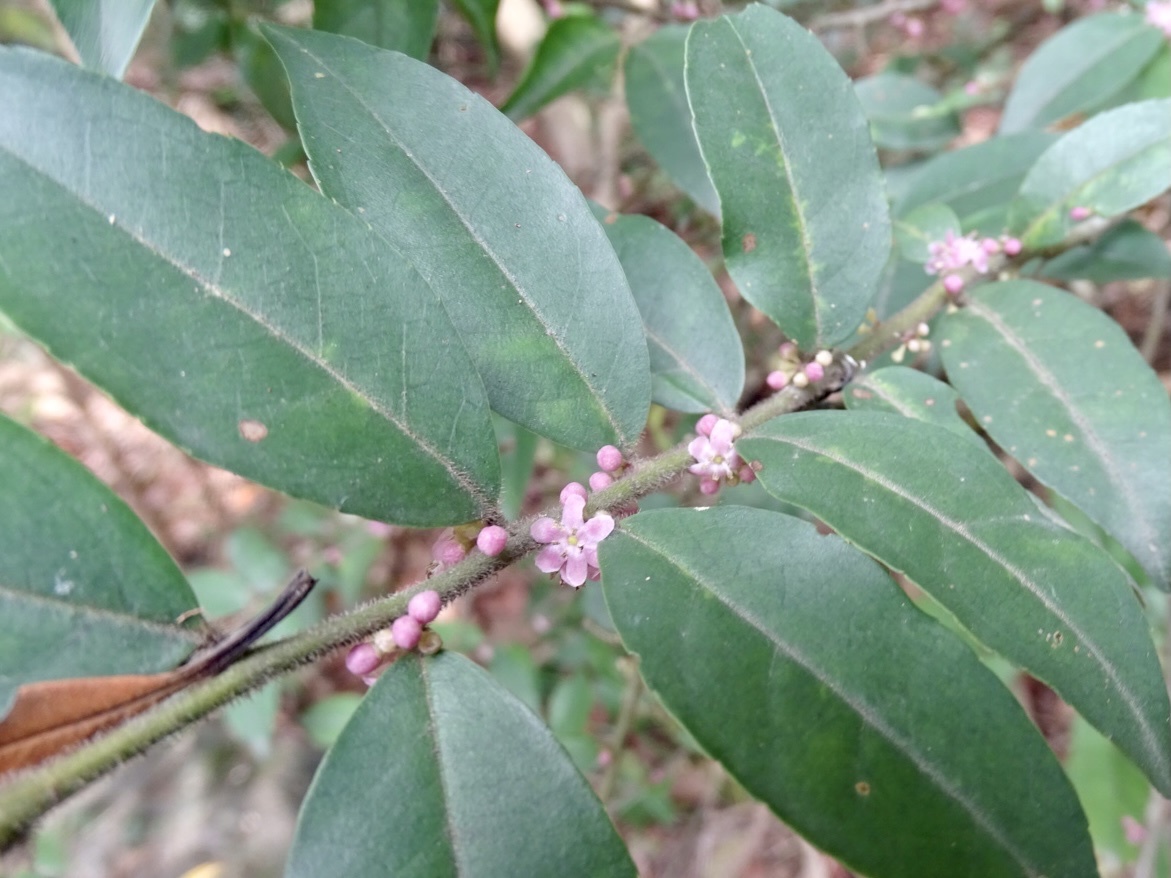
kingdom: Plantae
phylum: Tracheophyta
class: Magnoliopsida
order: Aquifoliales
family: Aquifoliaceae
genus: Ilex
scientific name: Ilex pubescens
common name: Pubescent holly
